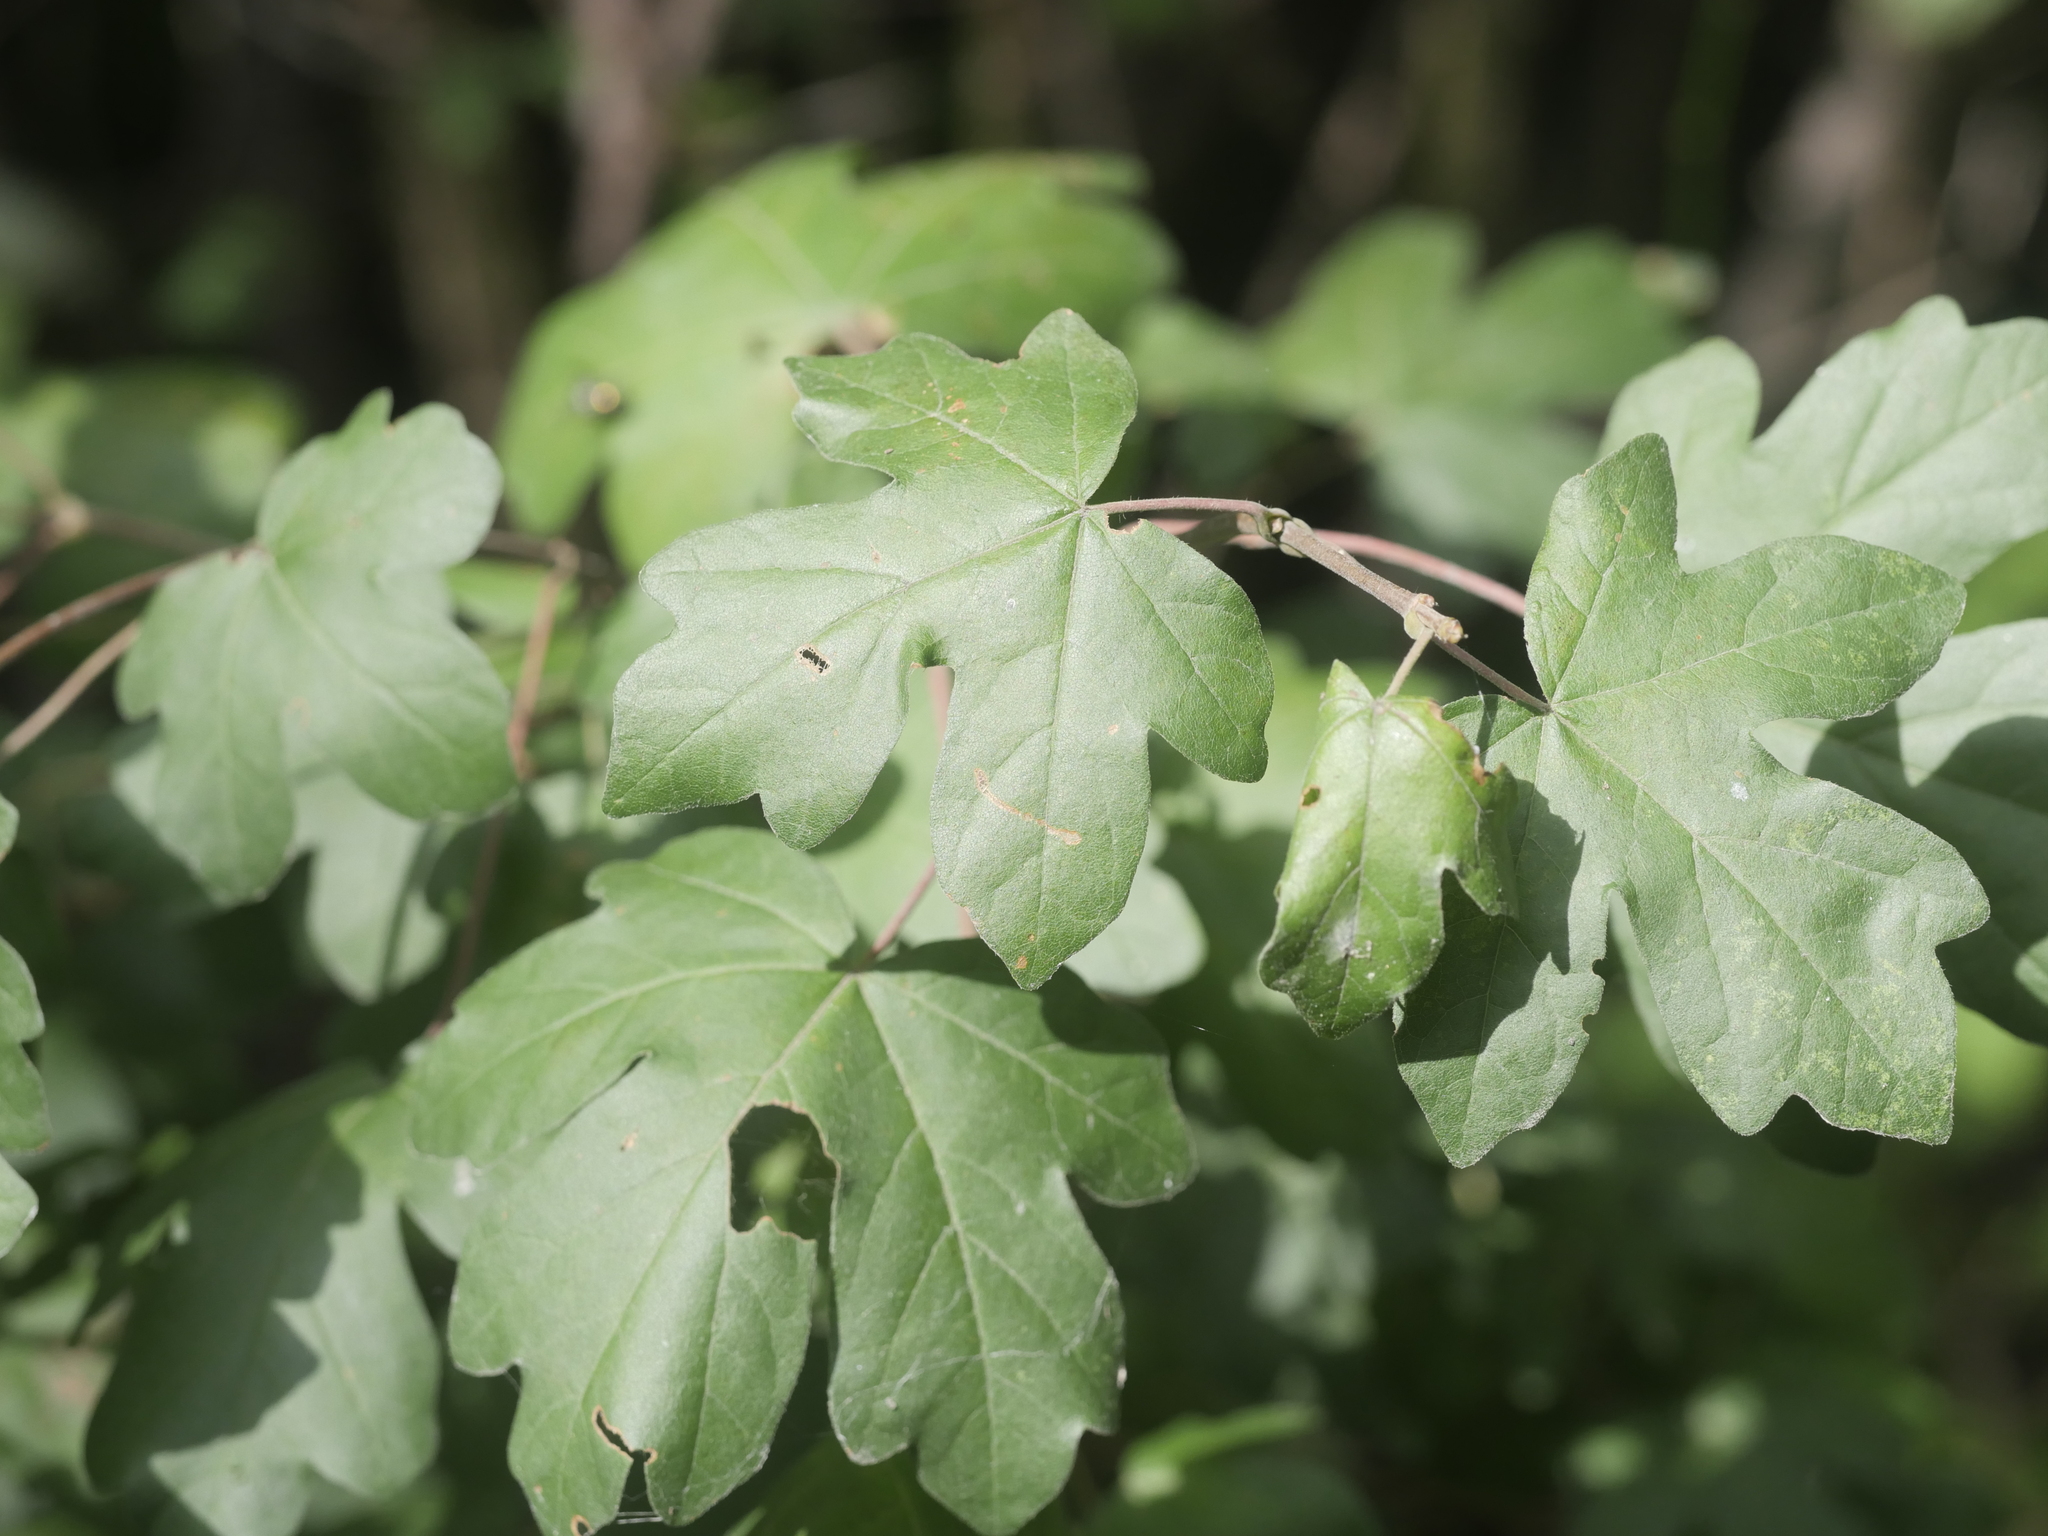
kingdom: Plantae
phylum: Tracheophyta
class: Magnoliopsida
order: Sapindales
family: Sapindaceae
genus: Acer
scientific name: Acer campestre
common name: Field maple
